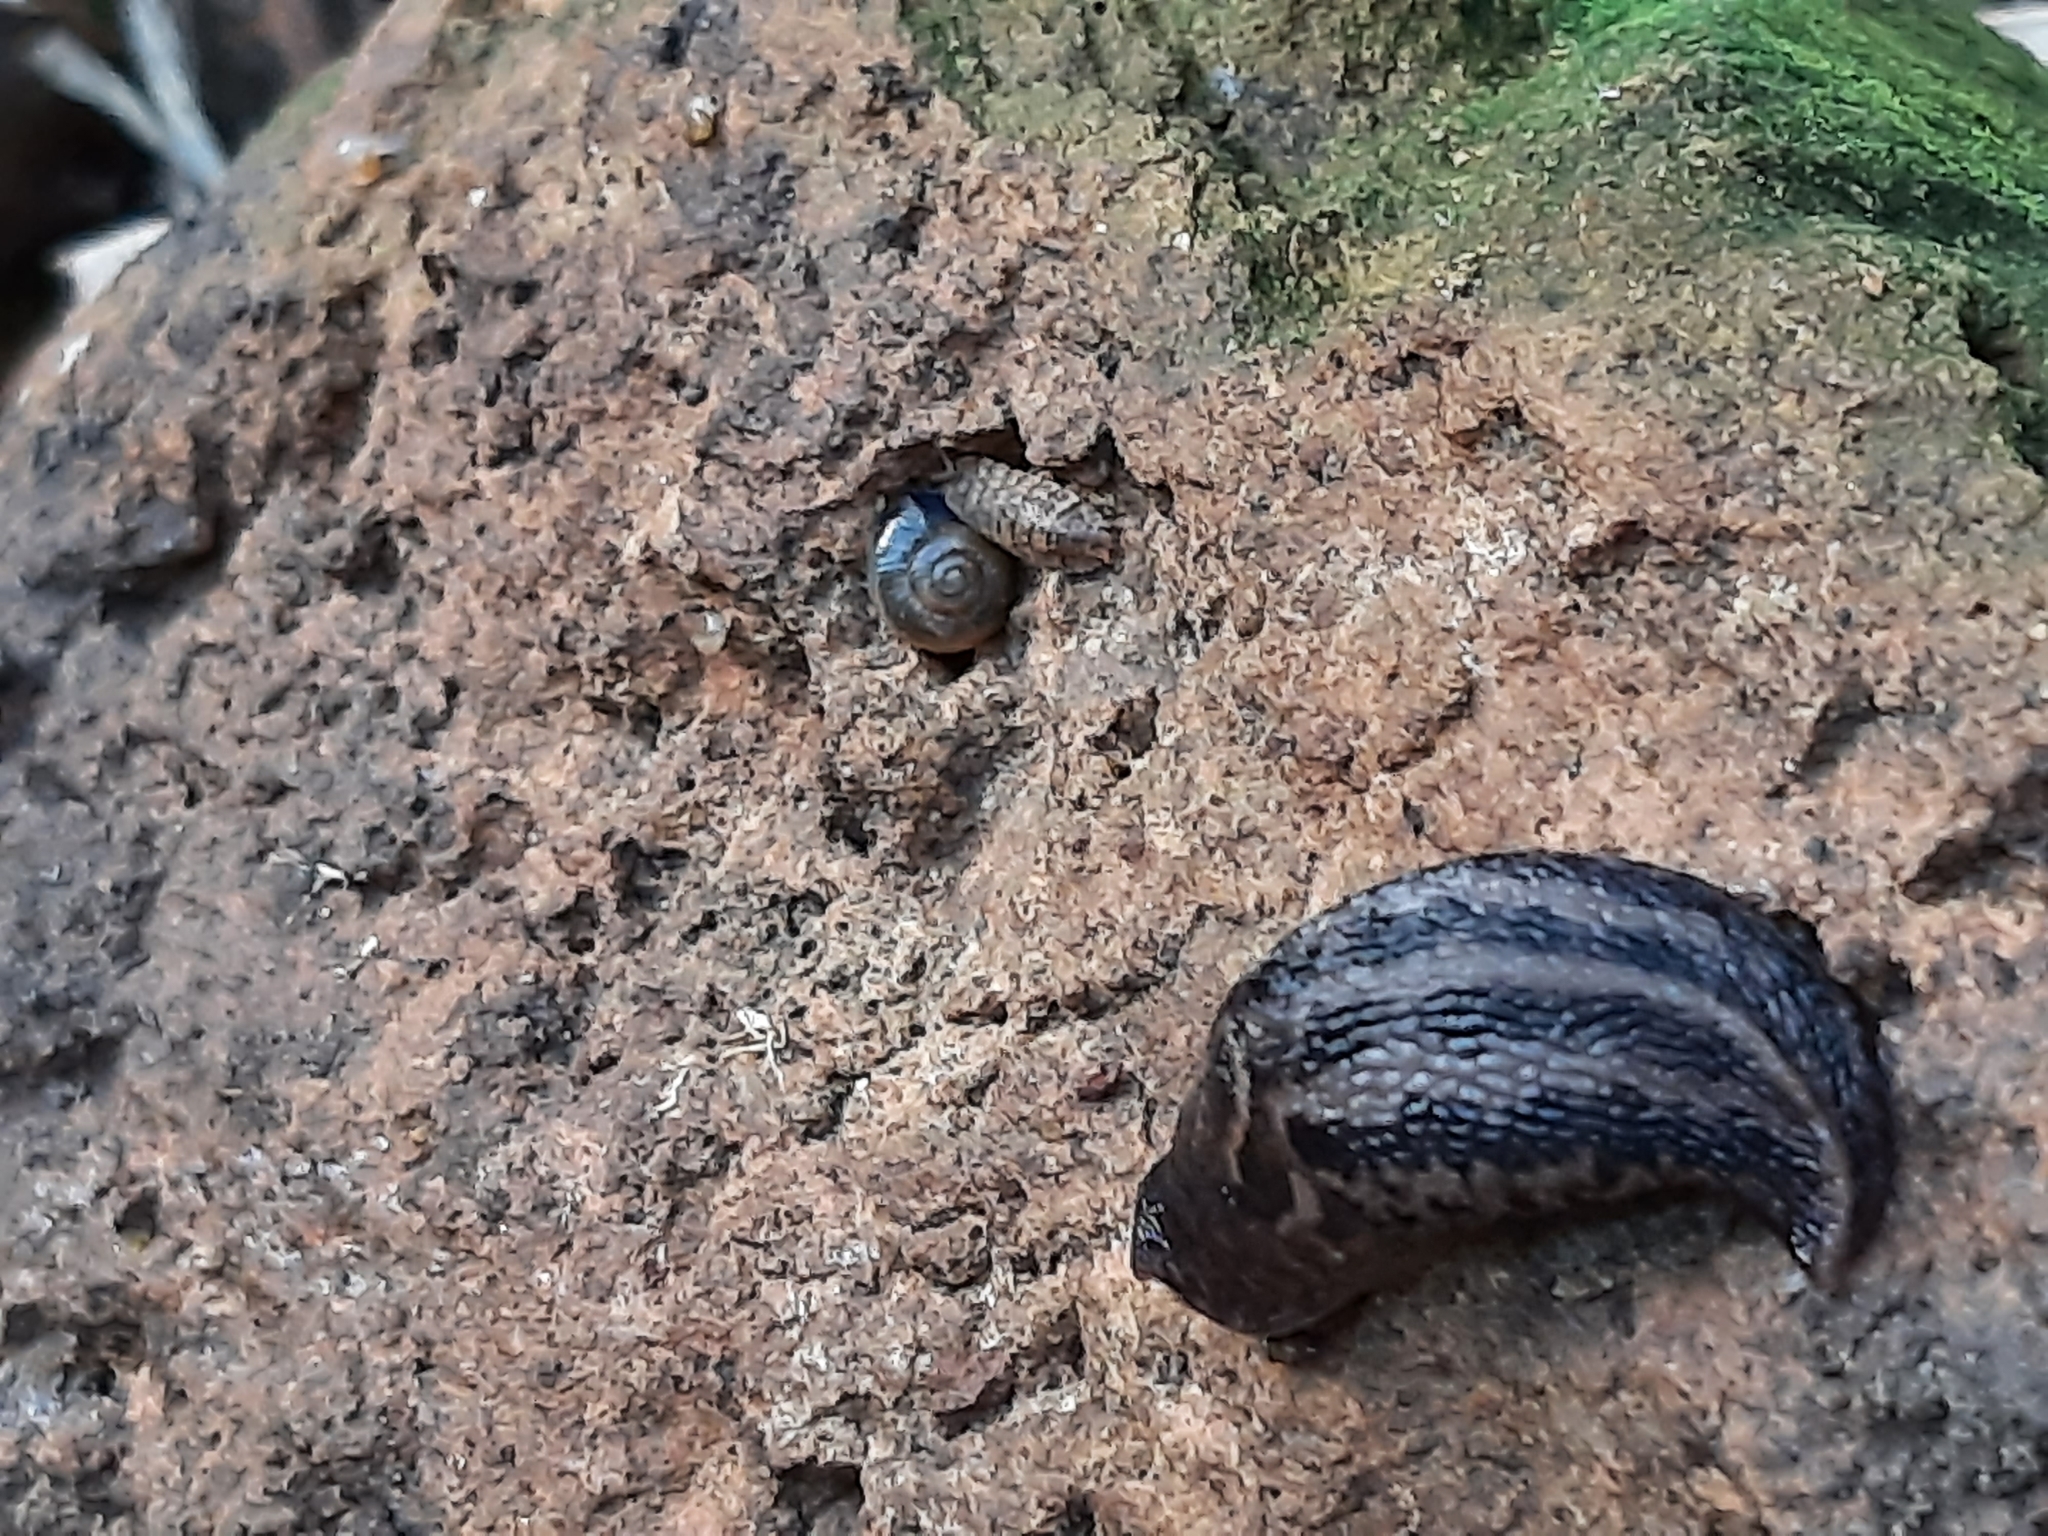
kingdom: Animalia
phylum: Mollusca
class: Gastropoda
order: Stylommatophora
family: Limacidae
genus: Limax
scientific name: Limax maximus
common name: Great grey slug
